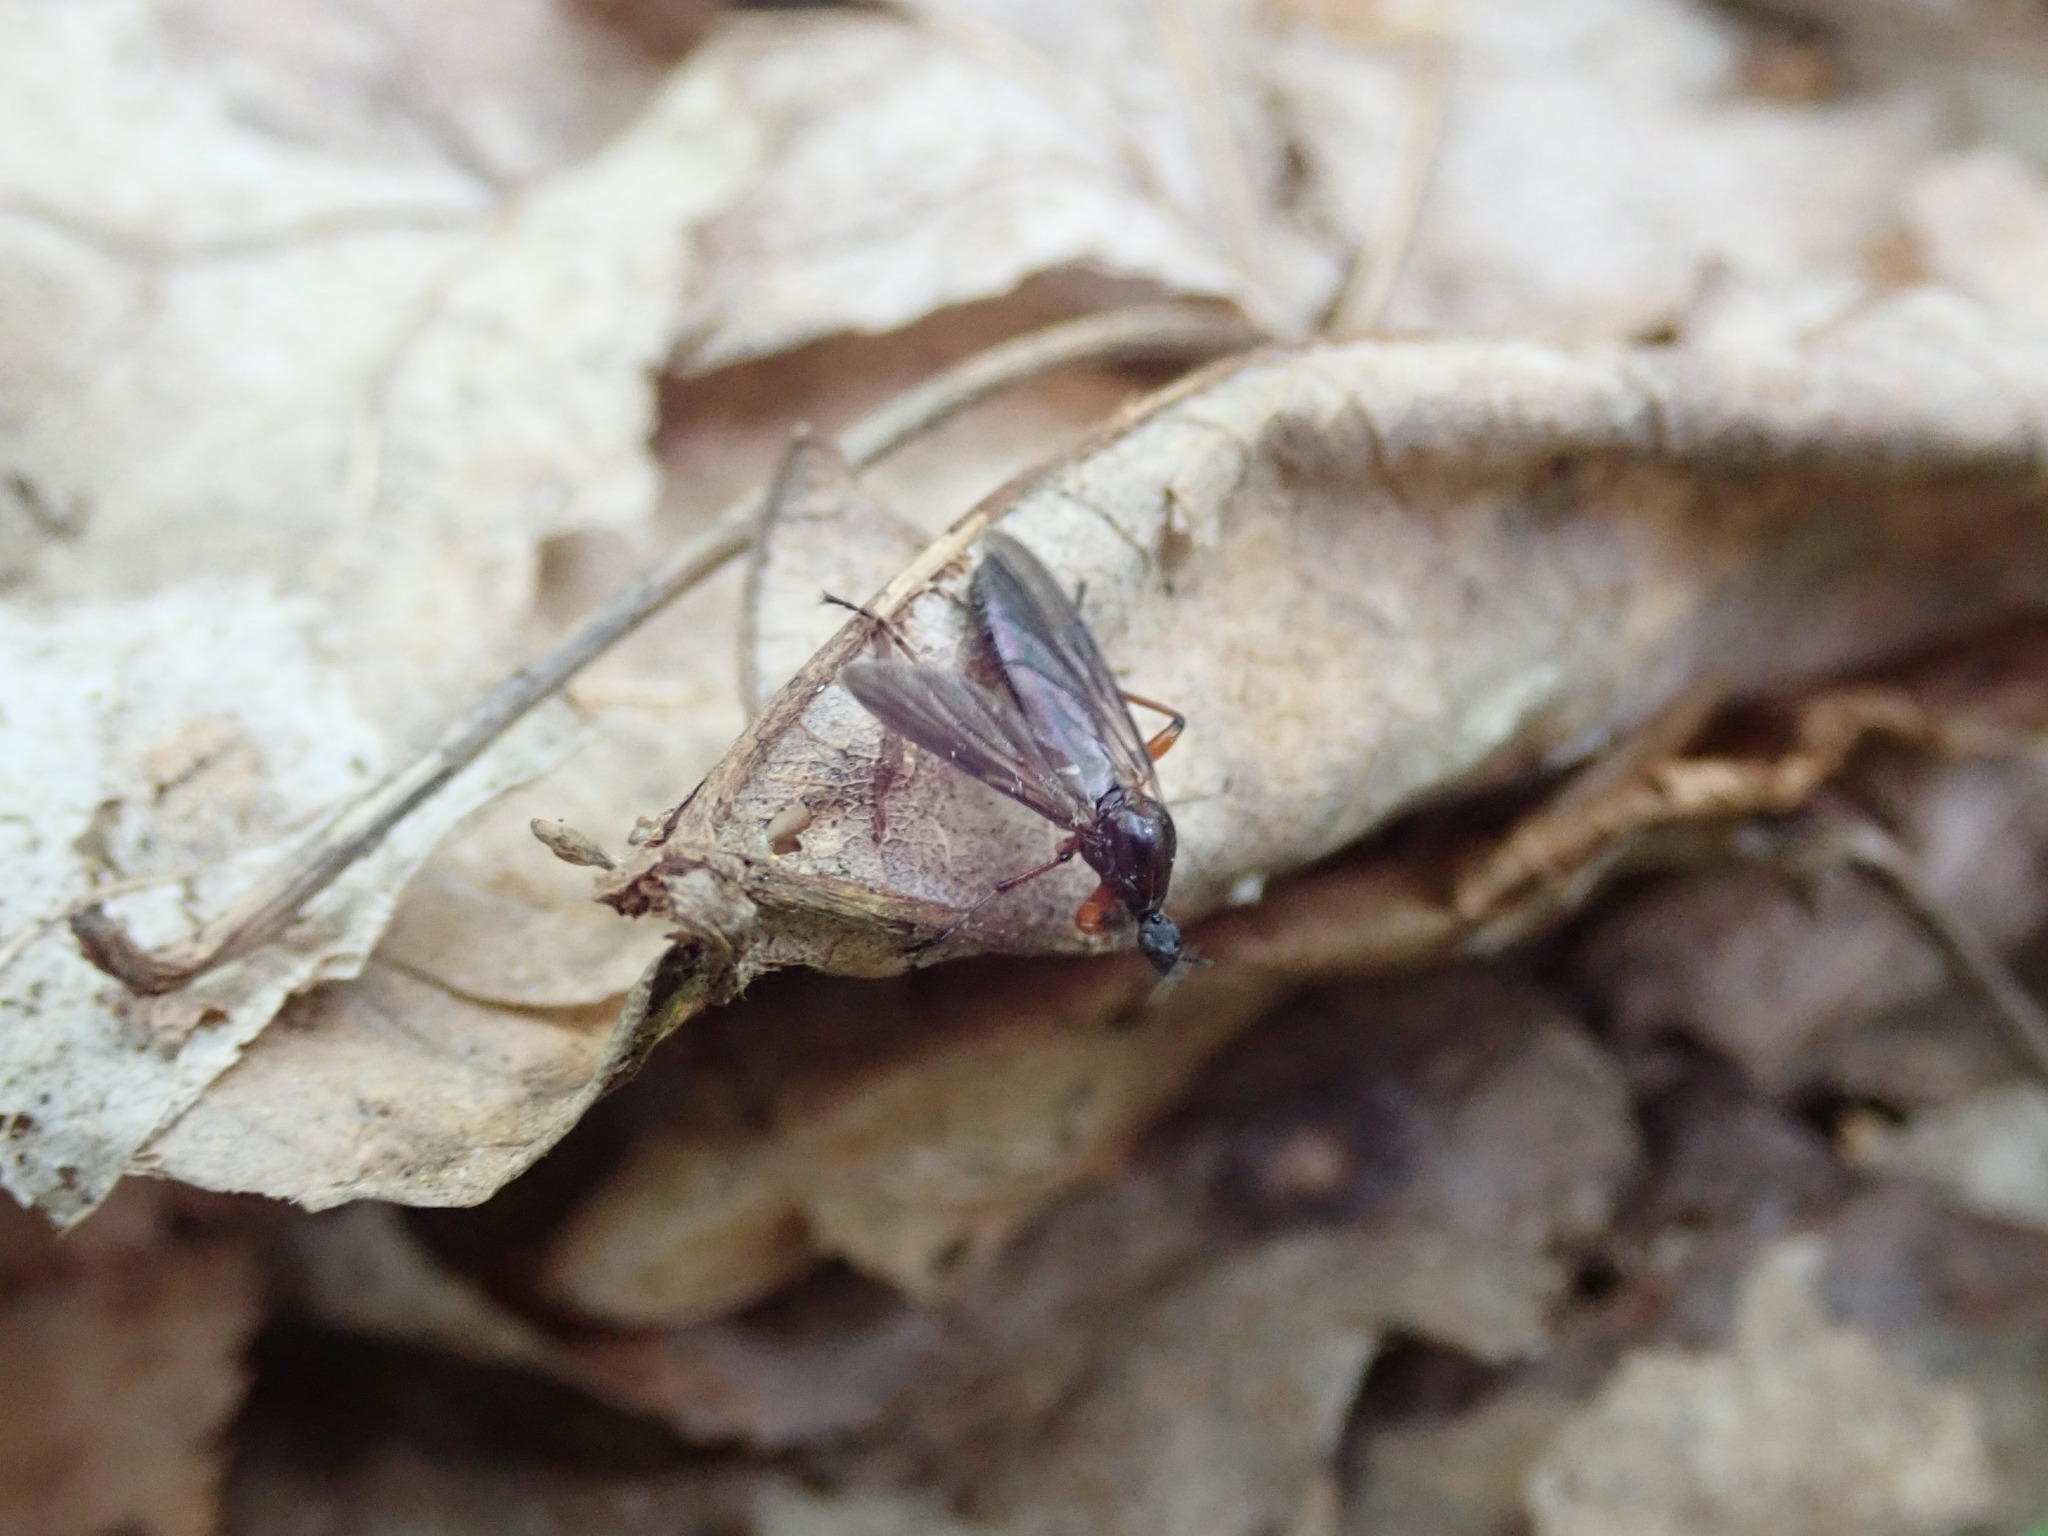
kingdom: Animalia
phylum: Arthropoda
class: Insecta
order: Diptera
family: Bibionidae
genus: Bibio
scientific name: Bibio
